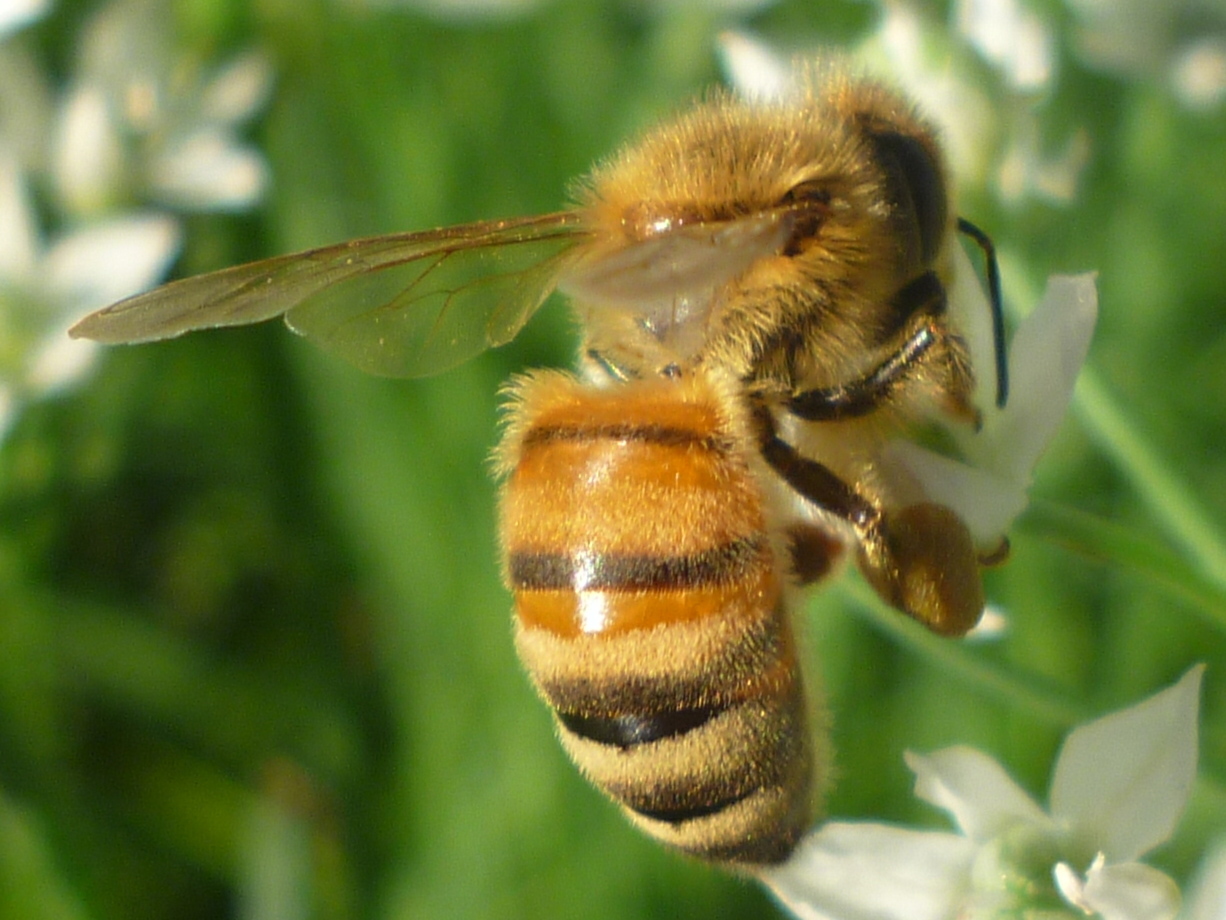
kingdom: Animalia
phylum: Arthropoda
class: Insecta
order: Hymenoptera
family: Apidae
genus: Apis
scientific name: Apis mellifera
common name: Honey bee
